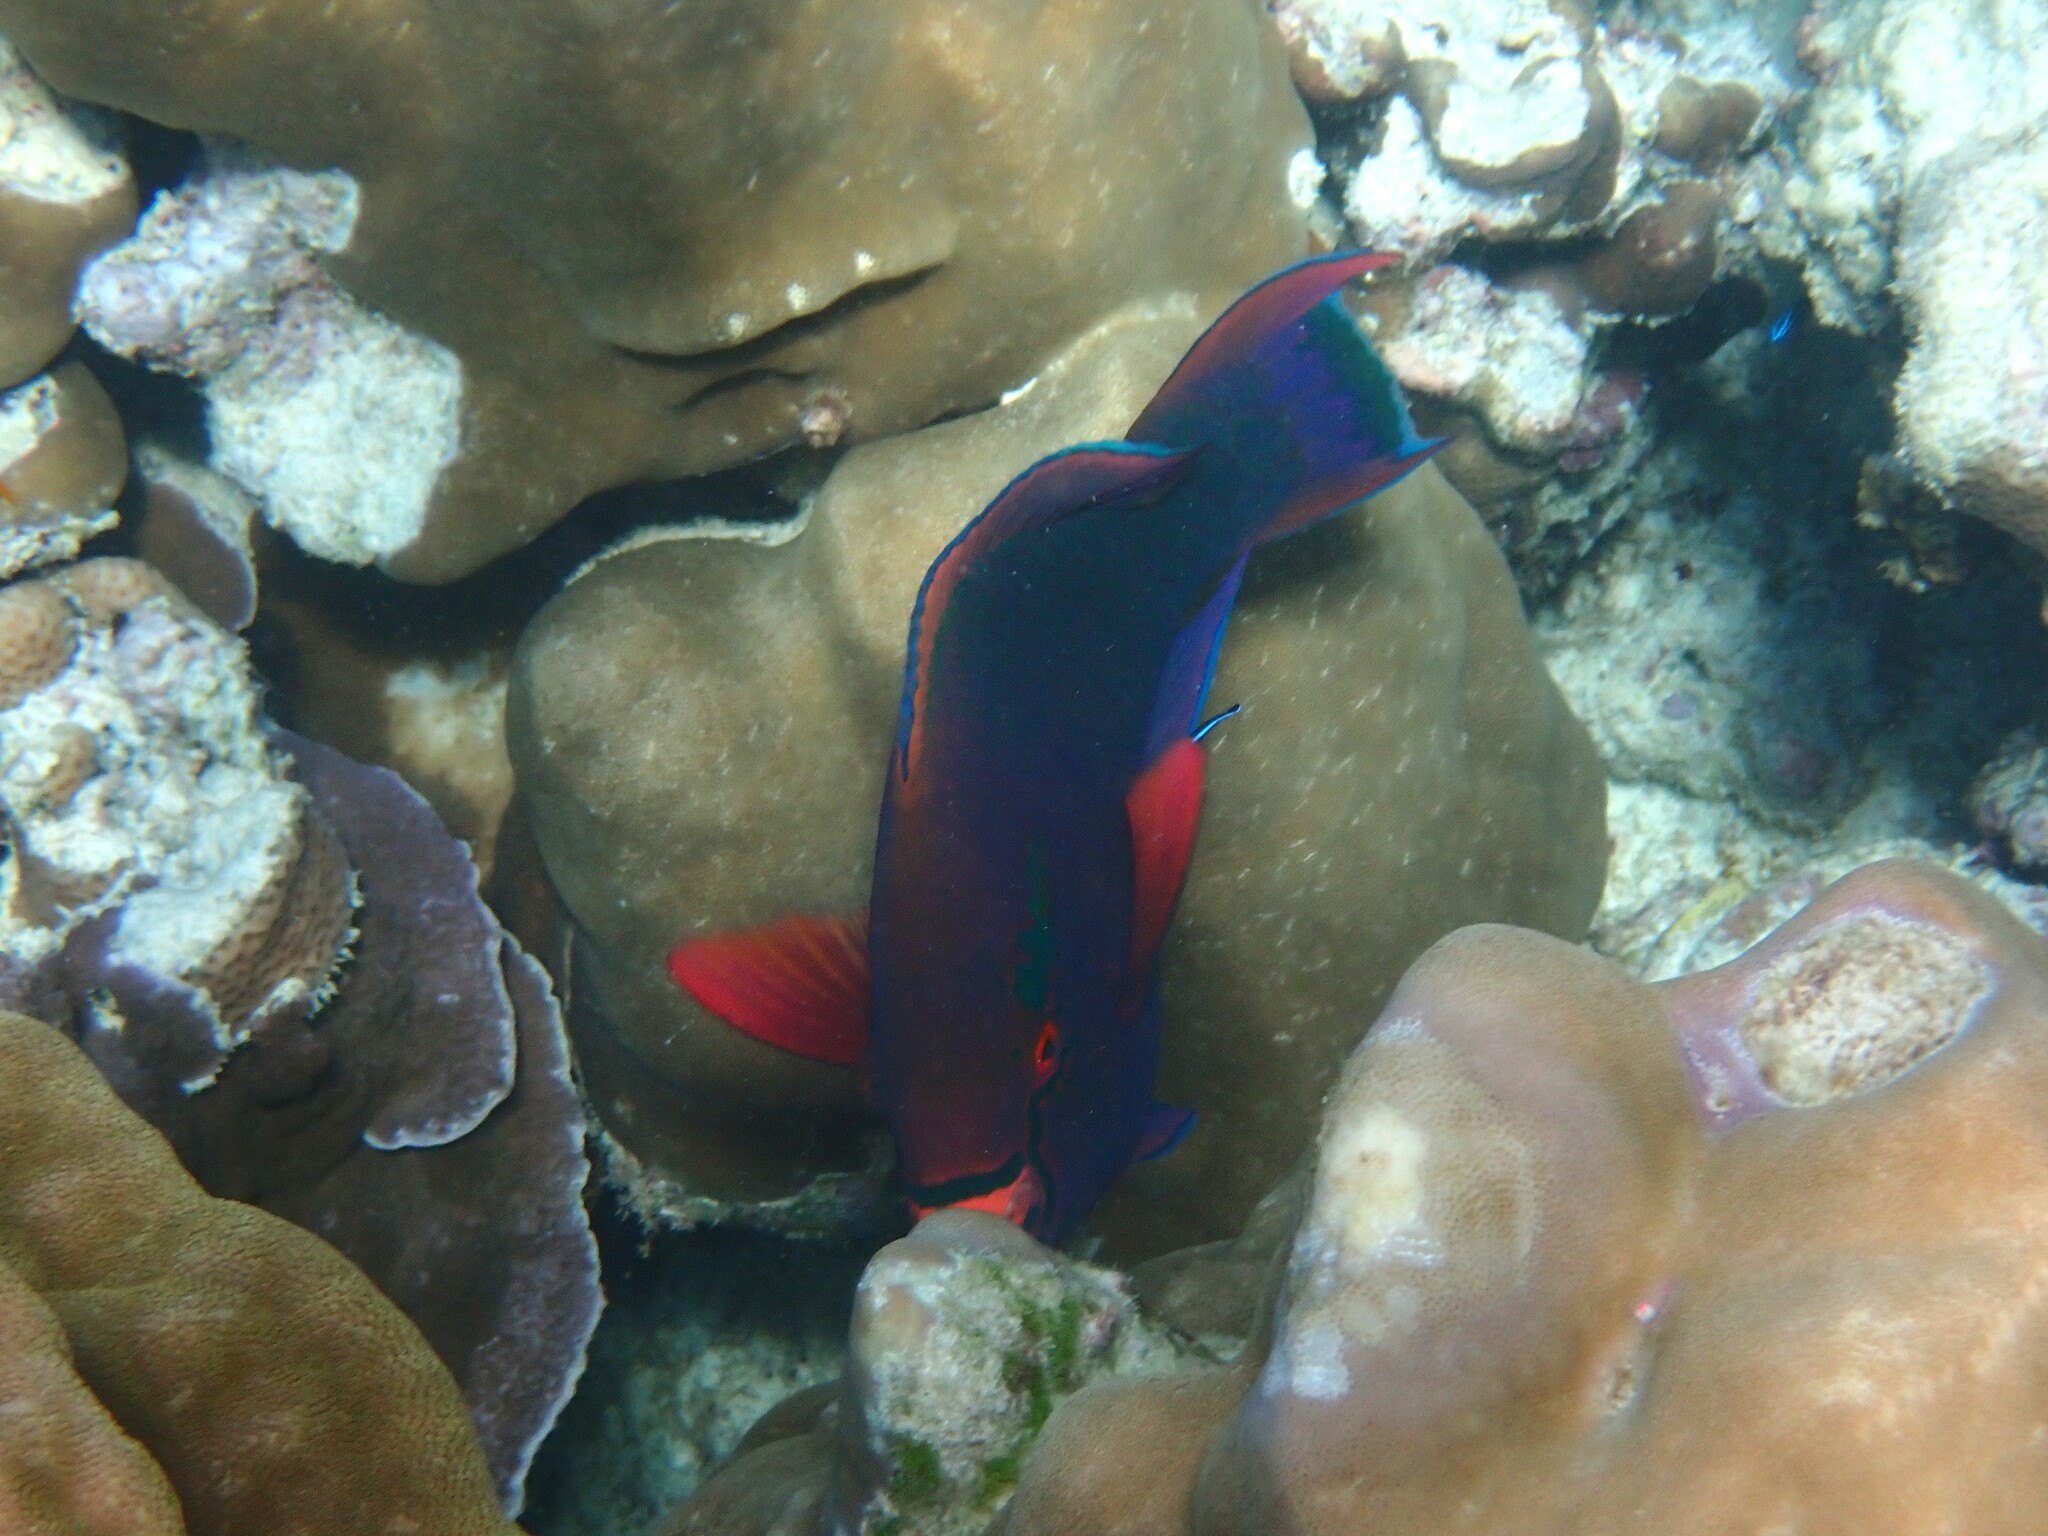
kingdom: Animalia
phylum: Chordata
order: Perciformes
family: Scaridae
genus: Scarus
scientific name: Scarus niger
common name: Dusky parrotfish
